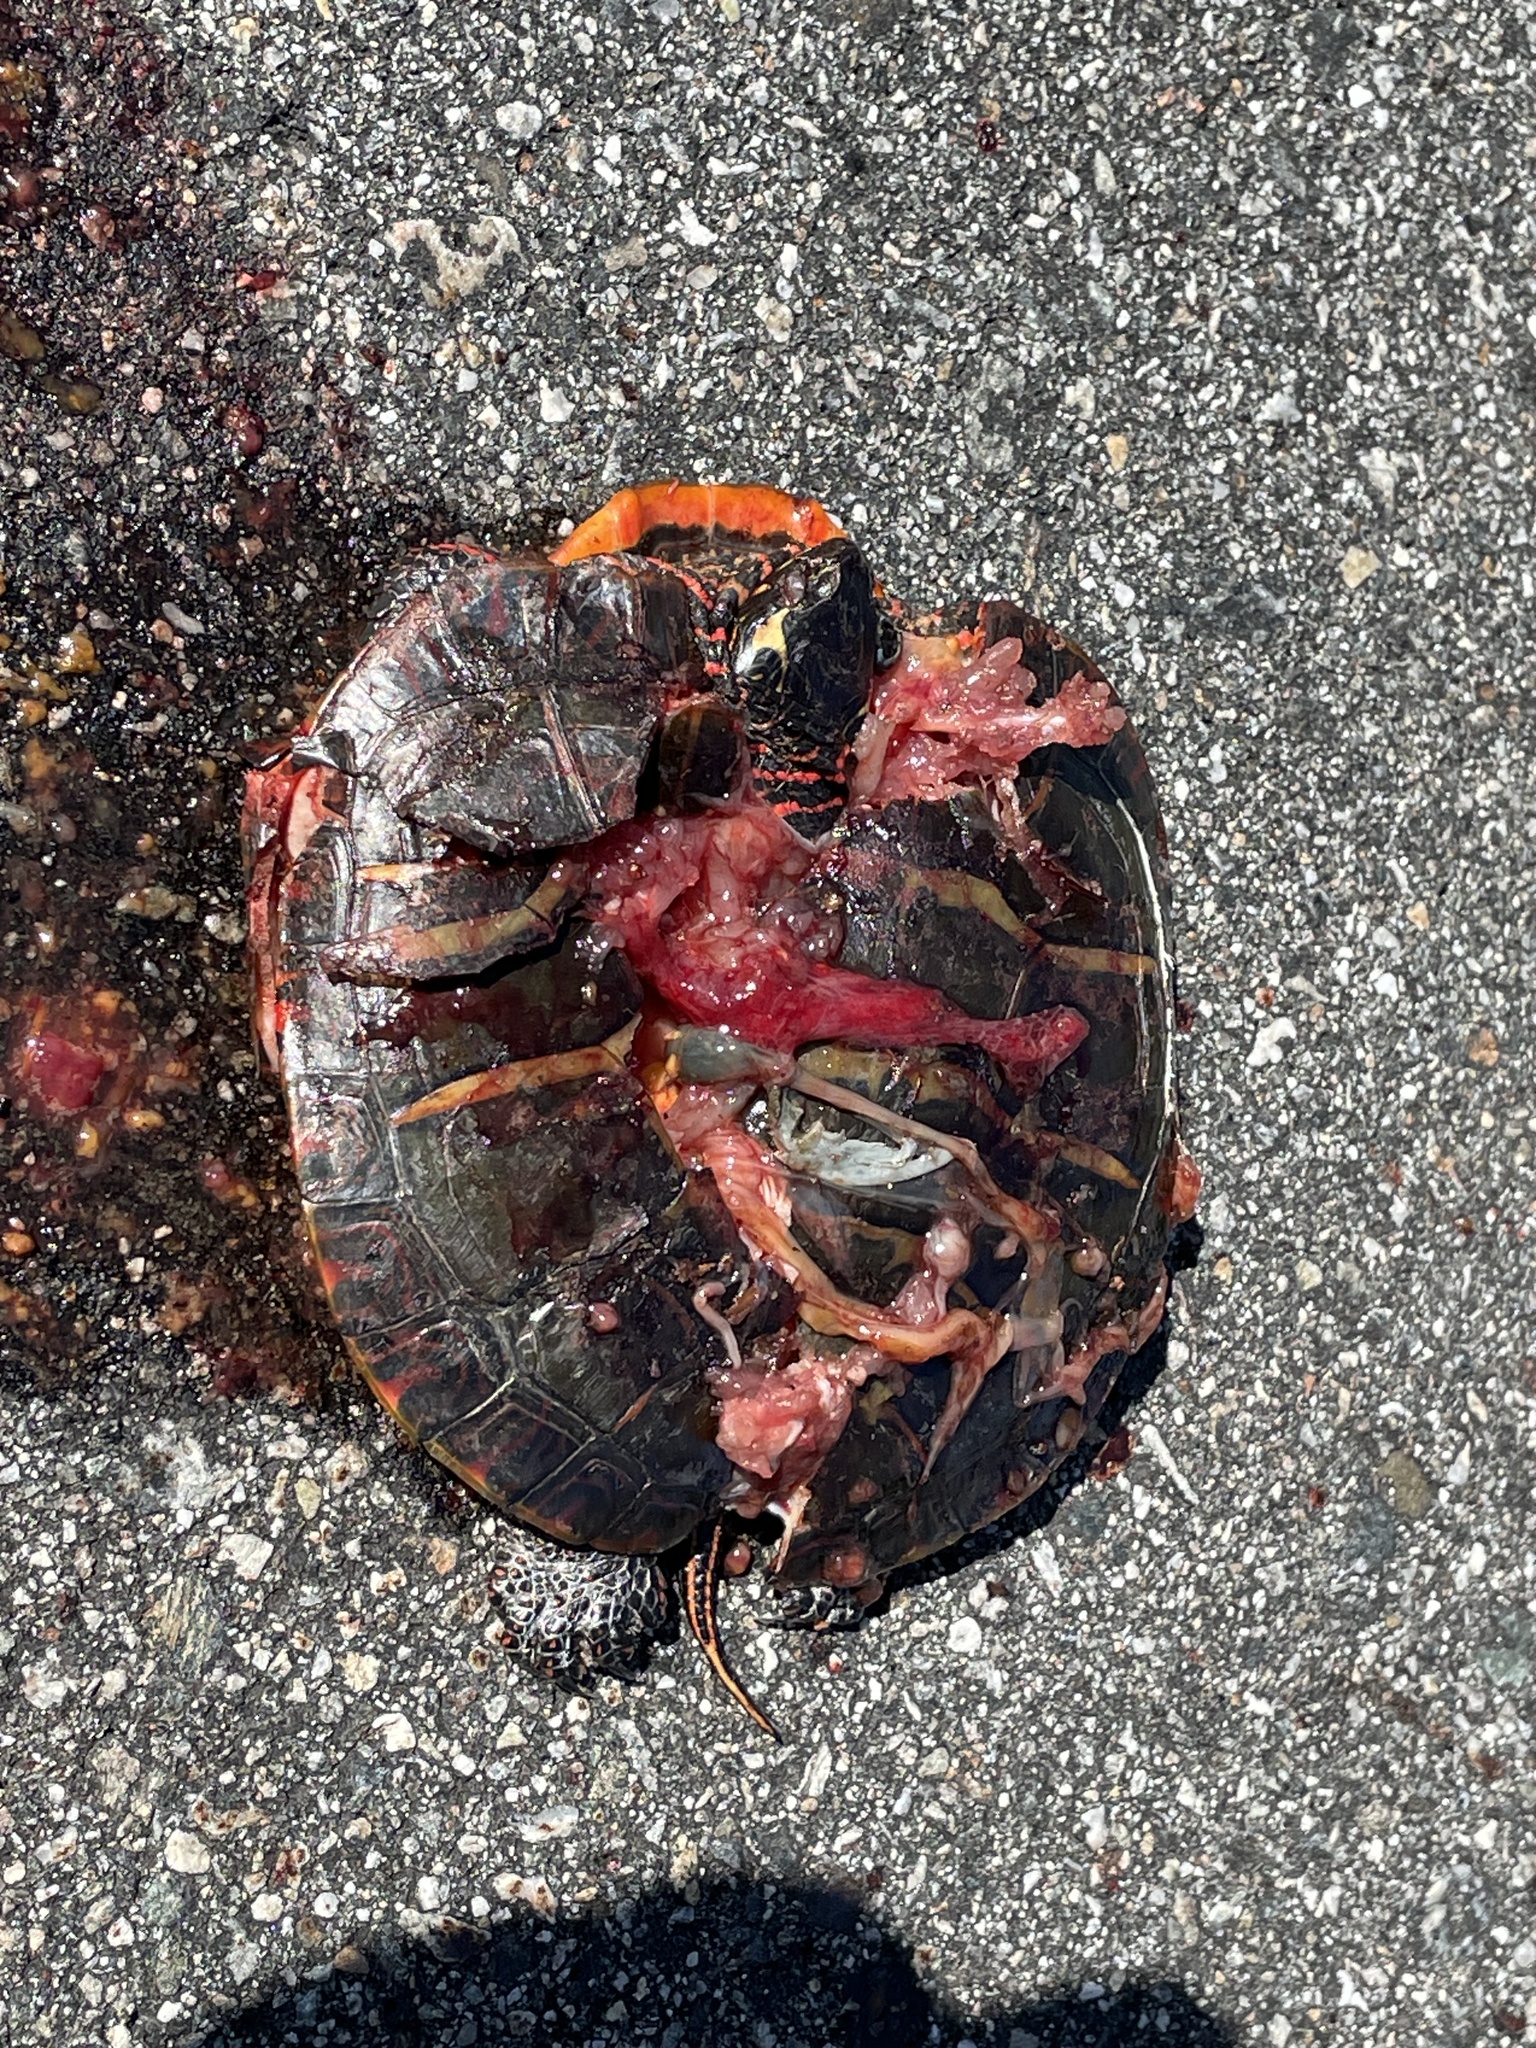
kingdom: Animalia
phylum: Chordata
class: Testudines
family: Emydidae
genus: Chrysemys
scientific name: Chrysemys picta
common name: Painted turtle
